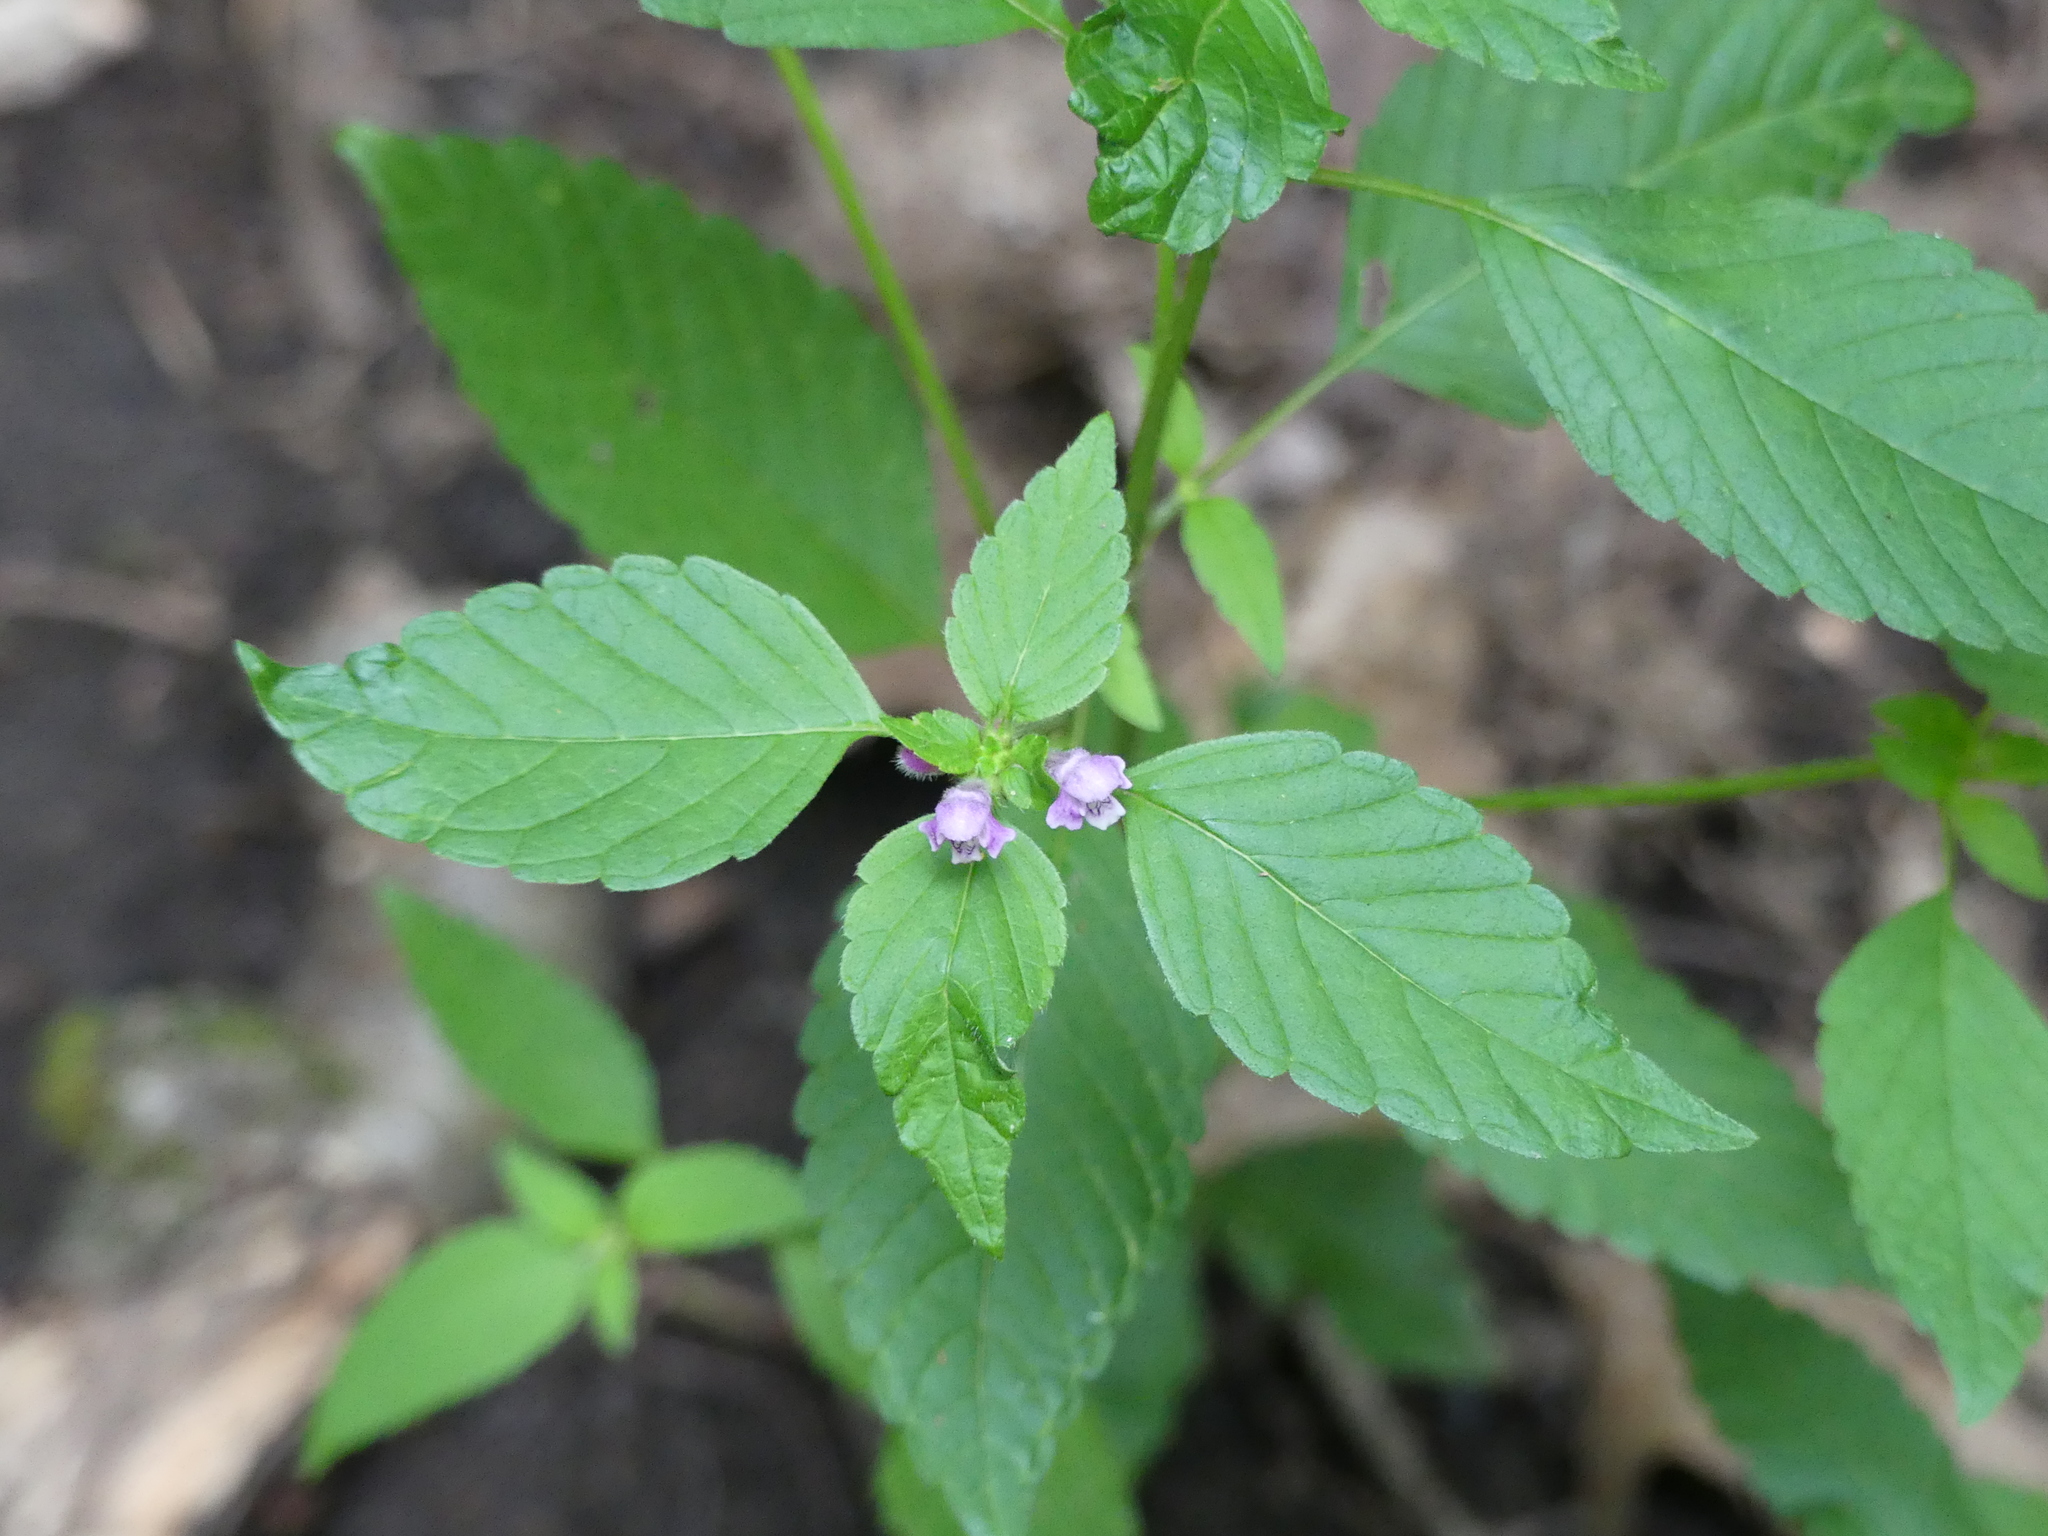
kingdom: Plantae
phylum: Tracheophyta
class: Magnoliopsida
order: Lamiales
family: Lamiaceae
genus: Galeopsis
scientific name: Galeopsis tetrahit
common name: Common hemp-nettle
